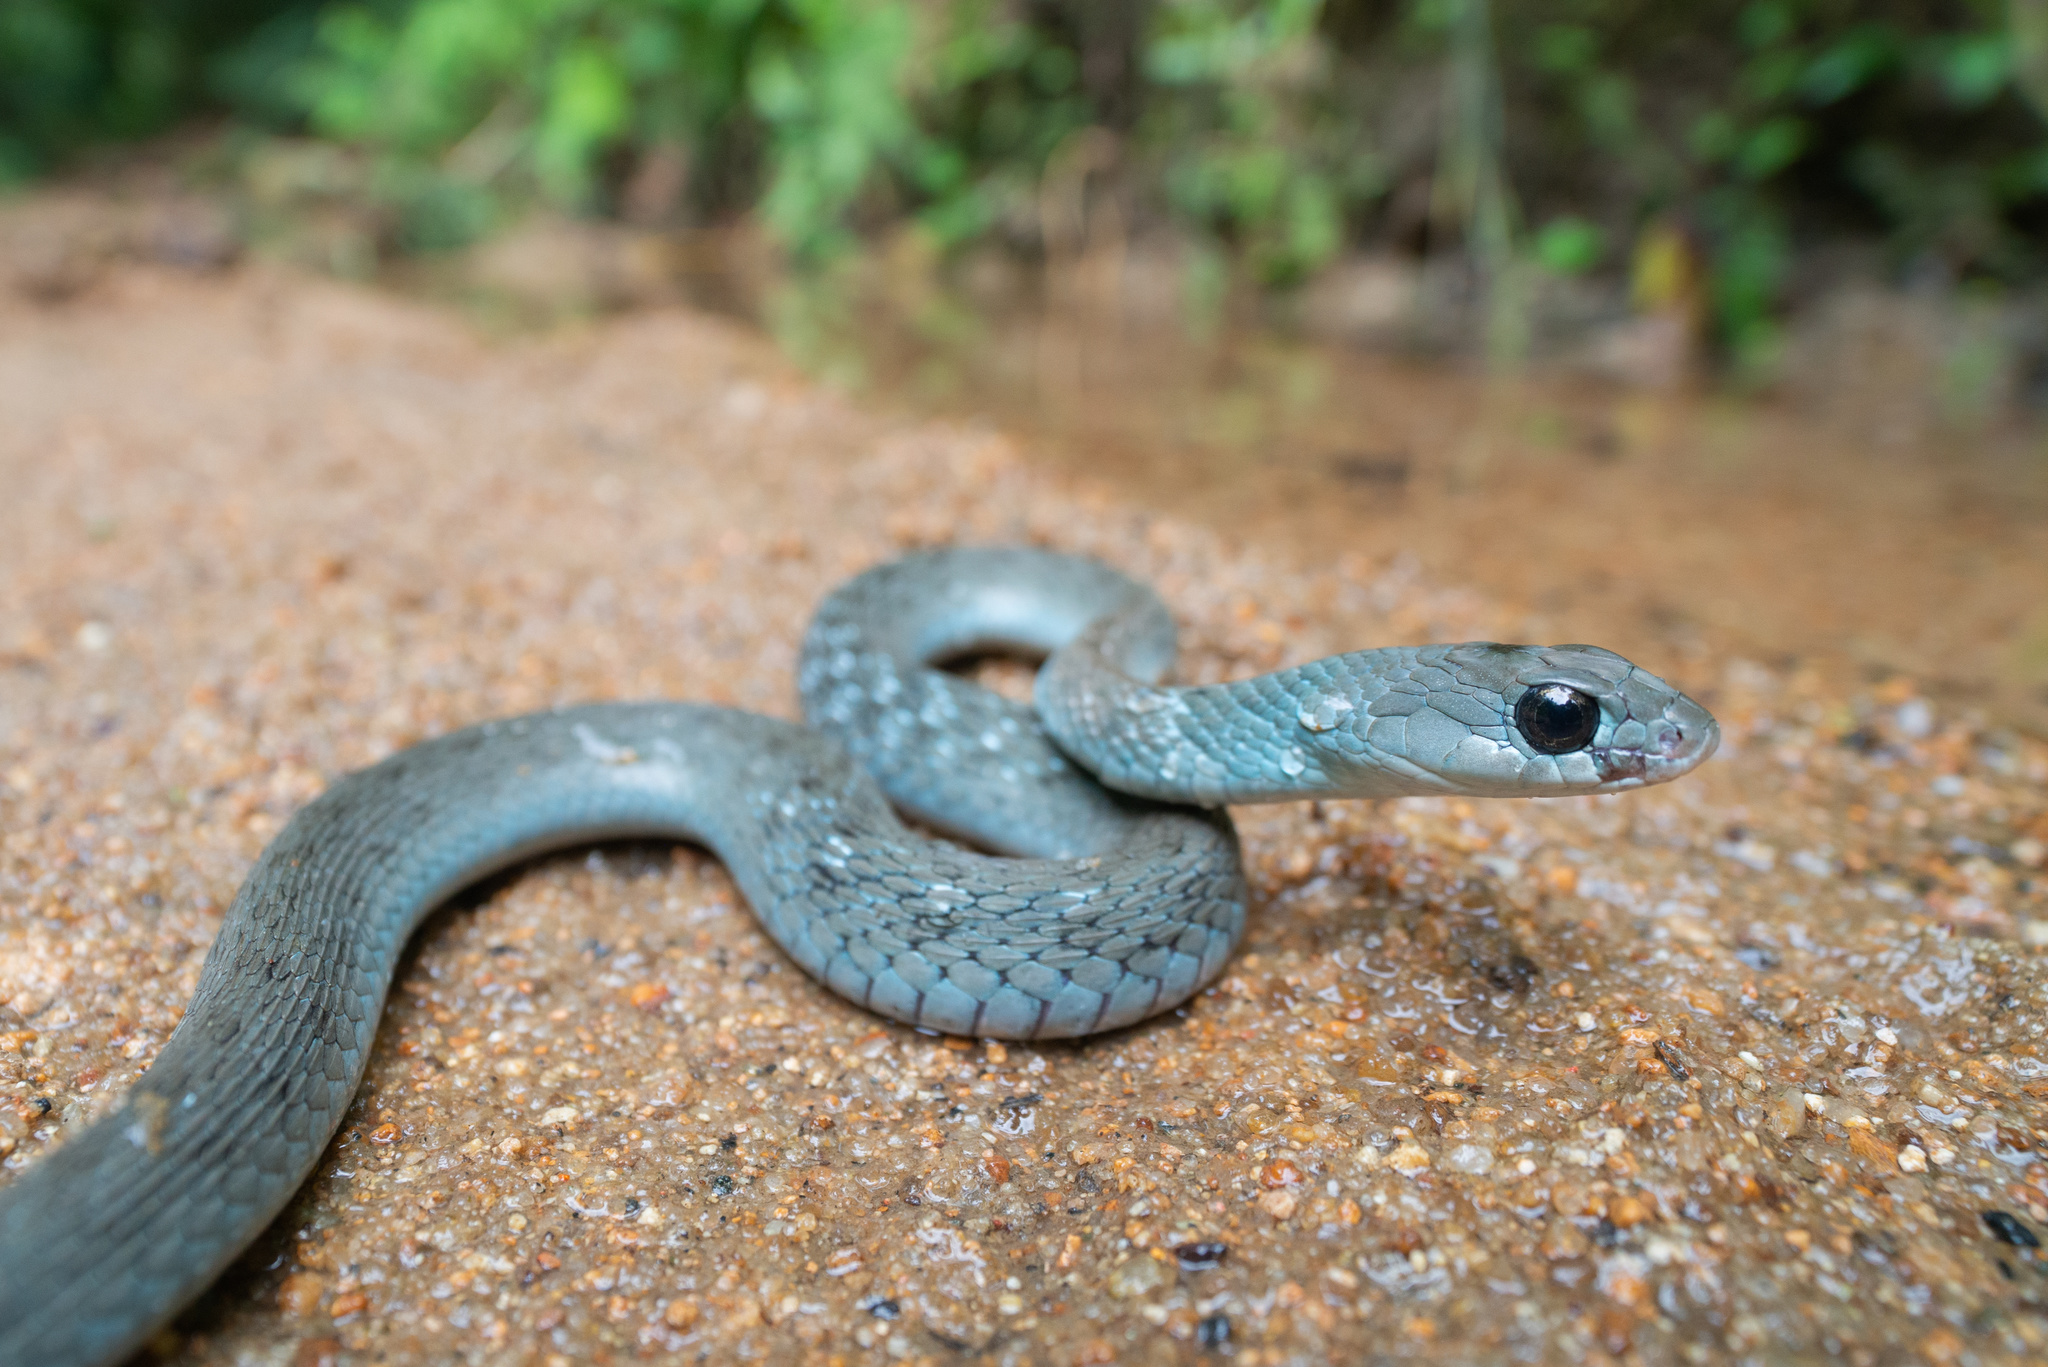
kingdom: Animalia
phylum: Chordata
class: Squamata
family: Colubridae
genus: Rhabdophis
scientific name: Rhabdophis helleri
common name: Heller’s red-necked keelback
